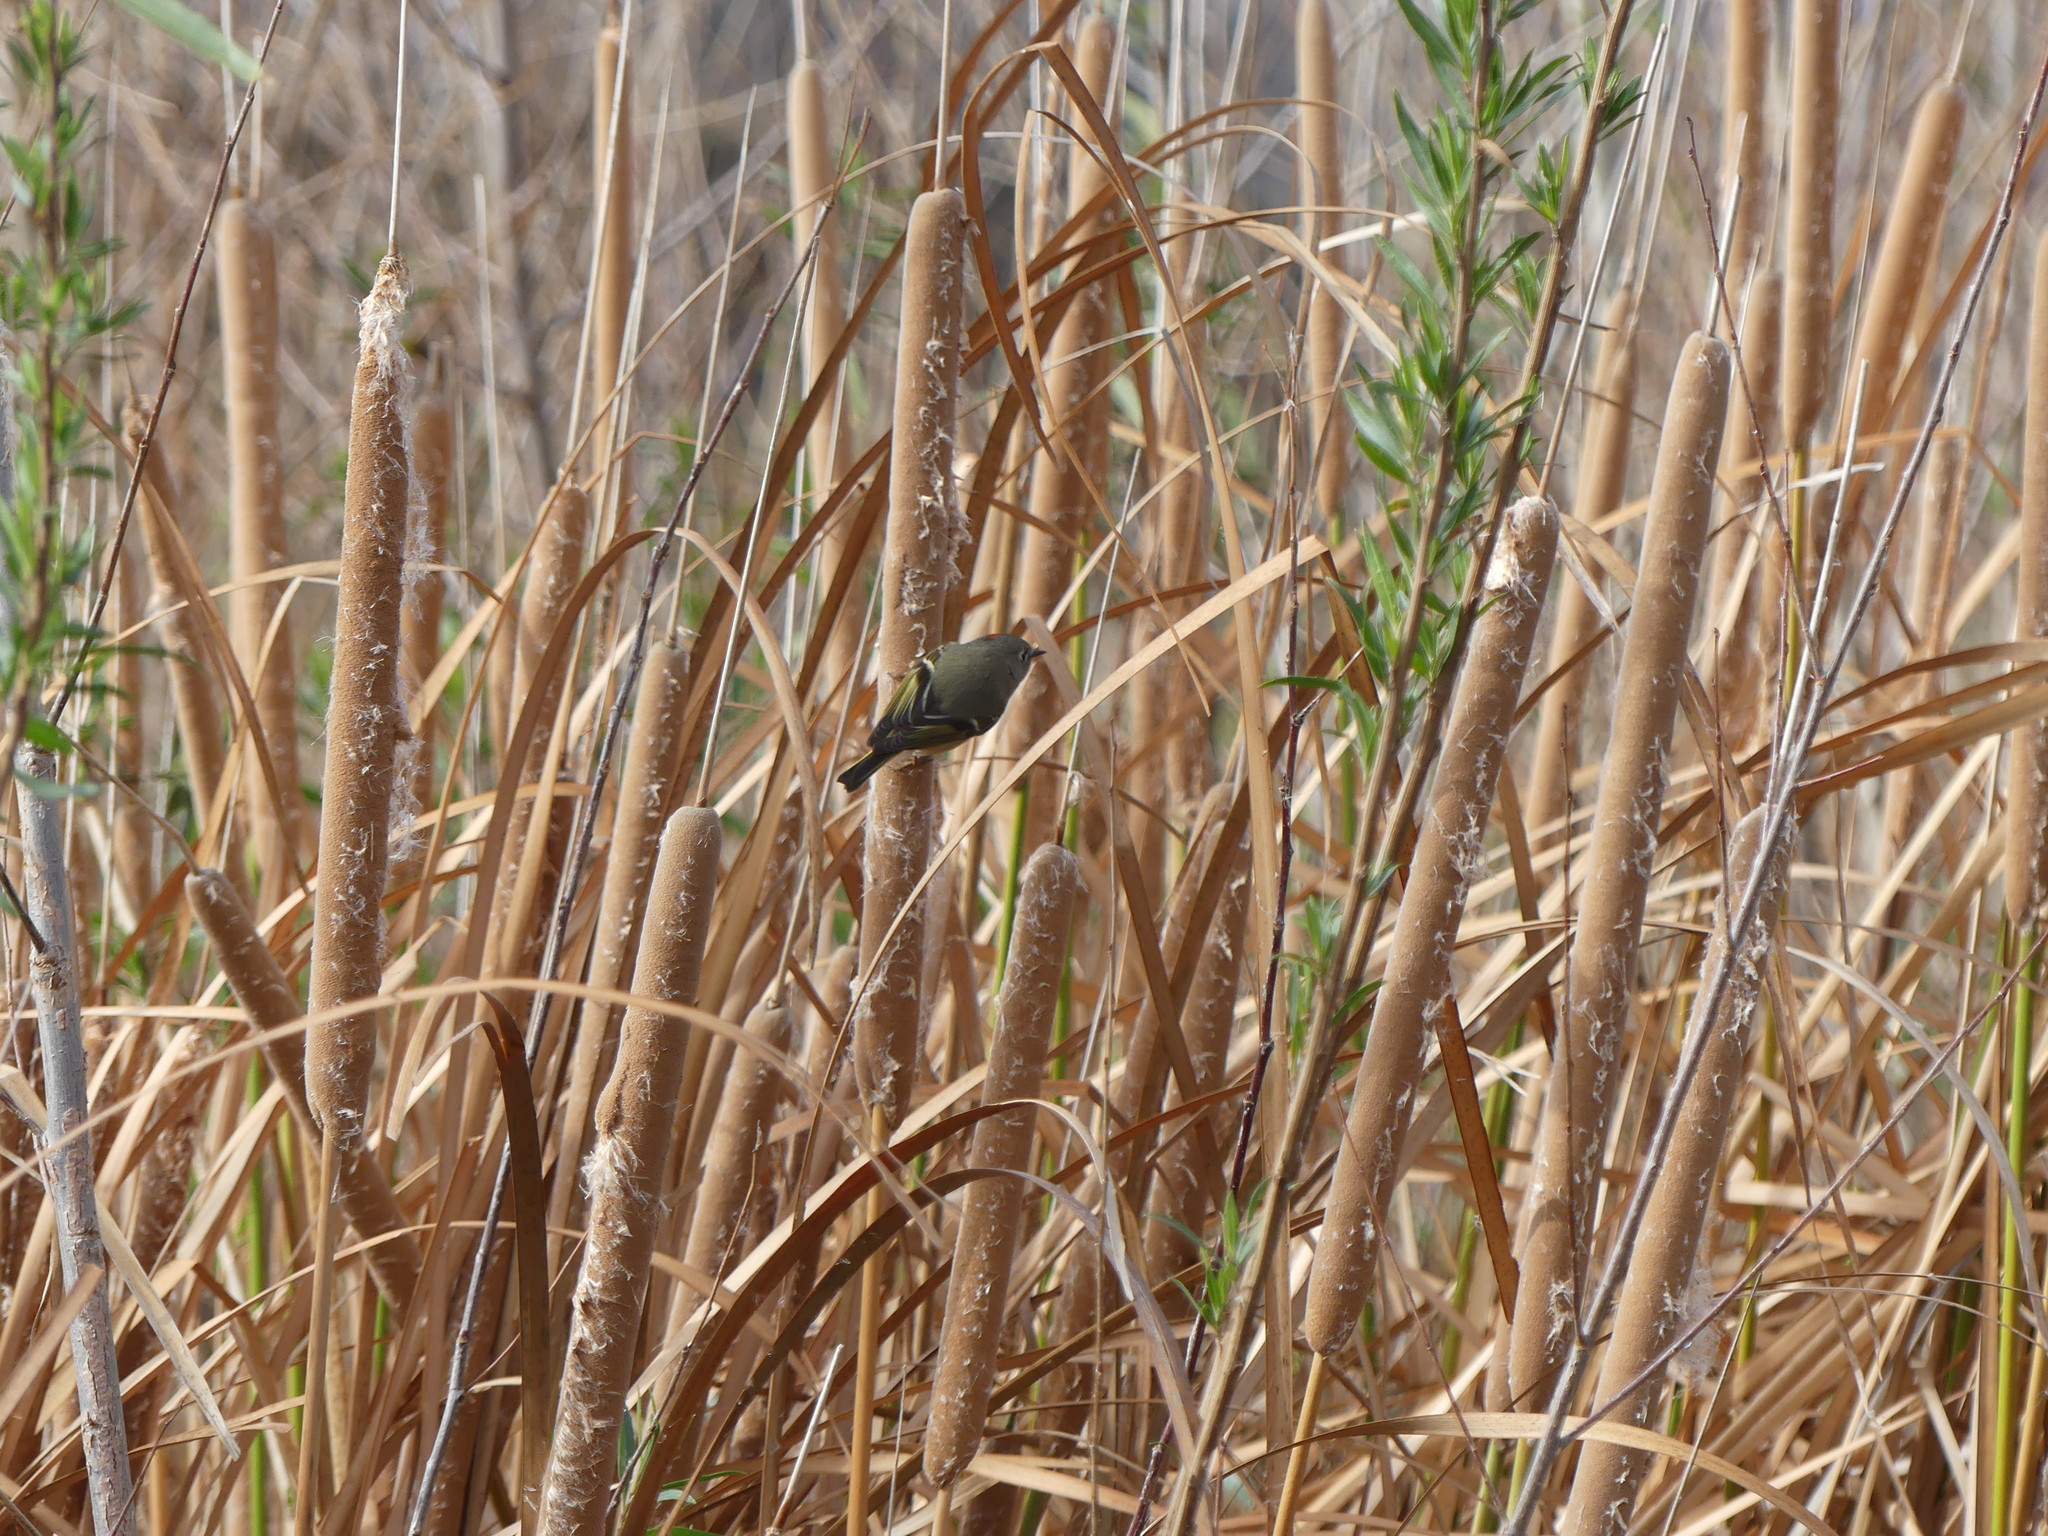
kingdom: Animalia
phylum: Chordata
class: Aves
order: Passeriformes
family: Regulidae
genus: Regulus
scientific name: Regulus calendula
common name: Ruby-crowned kinglet
